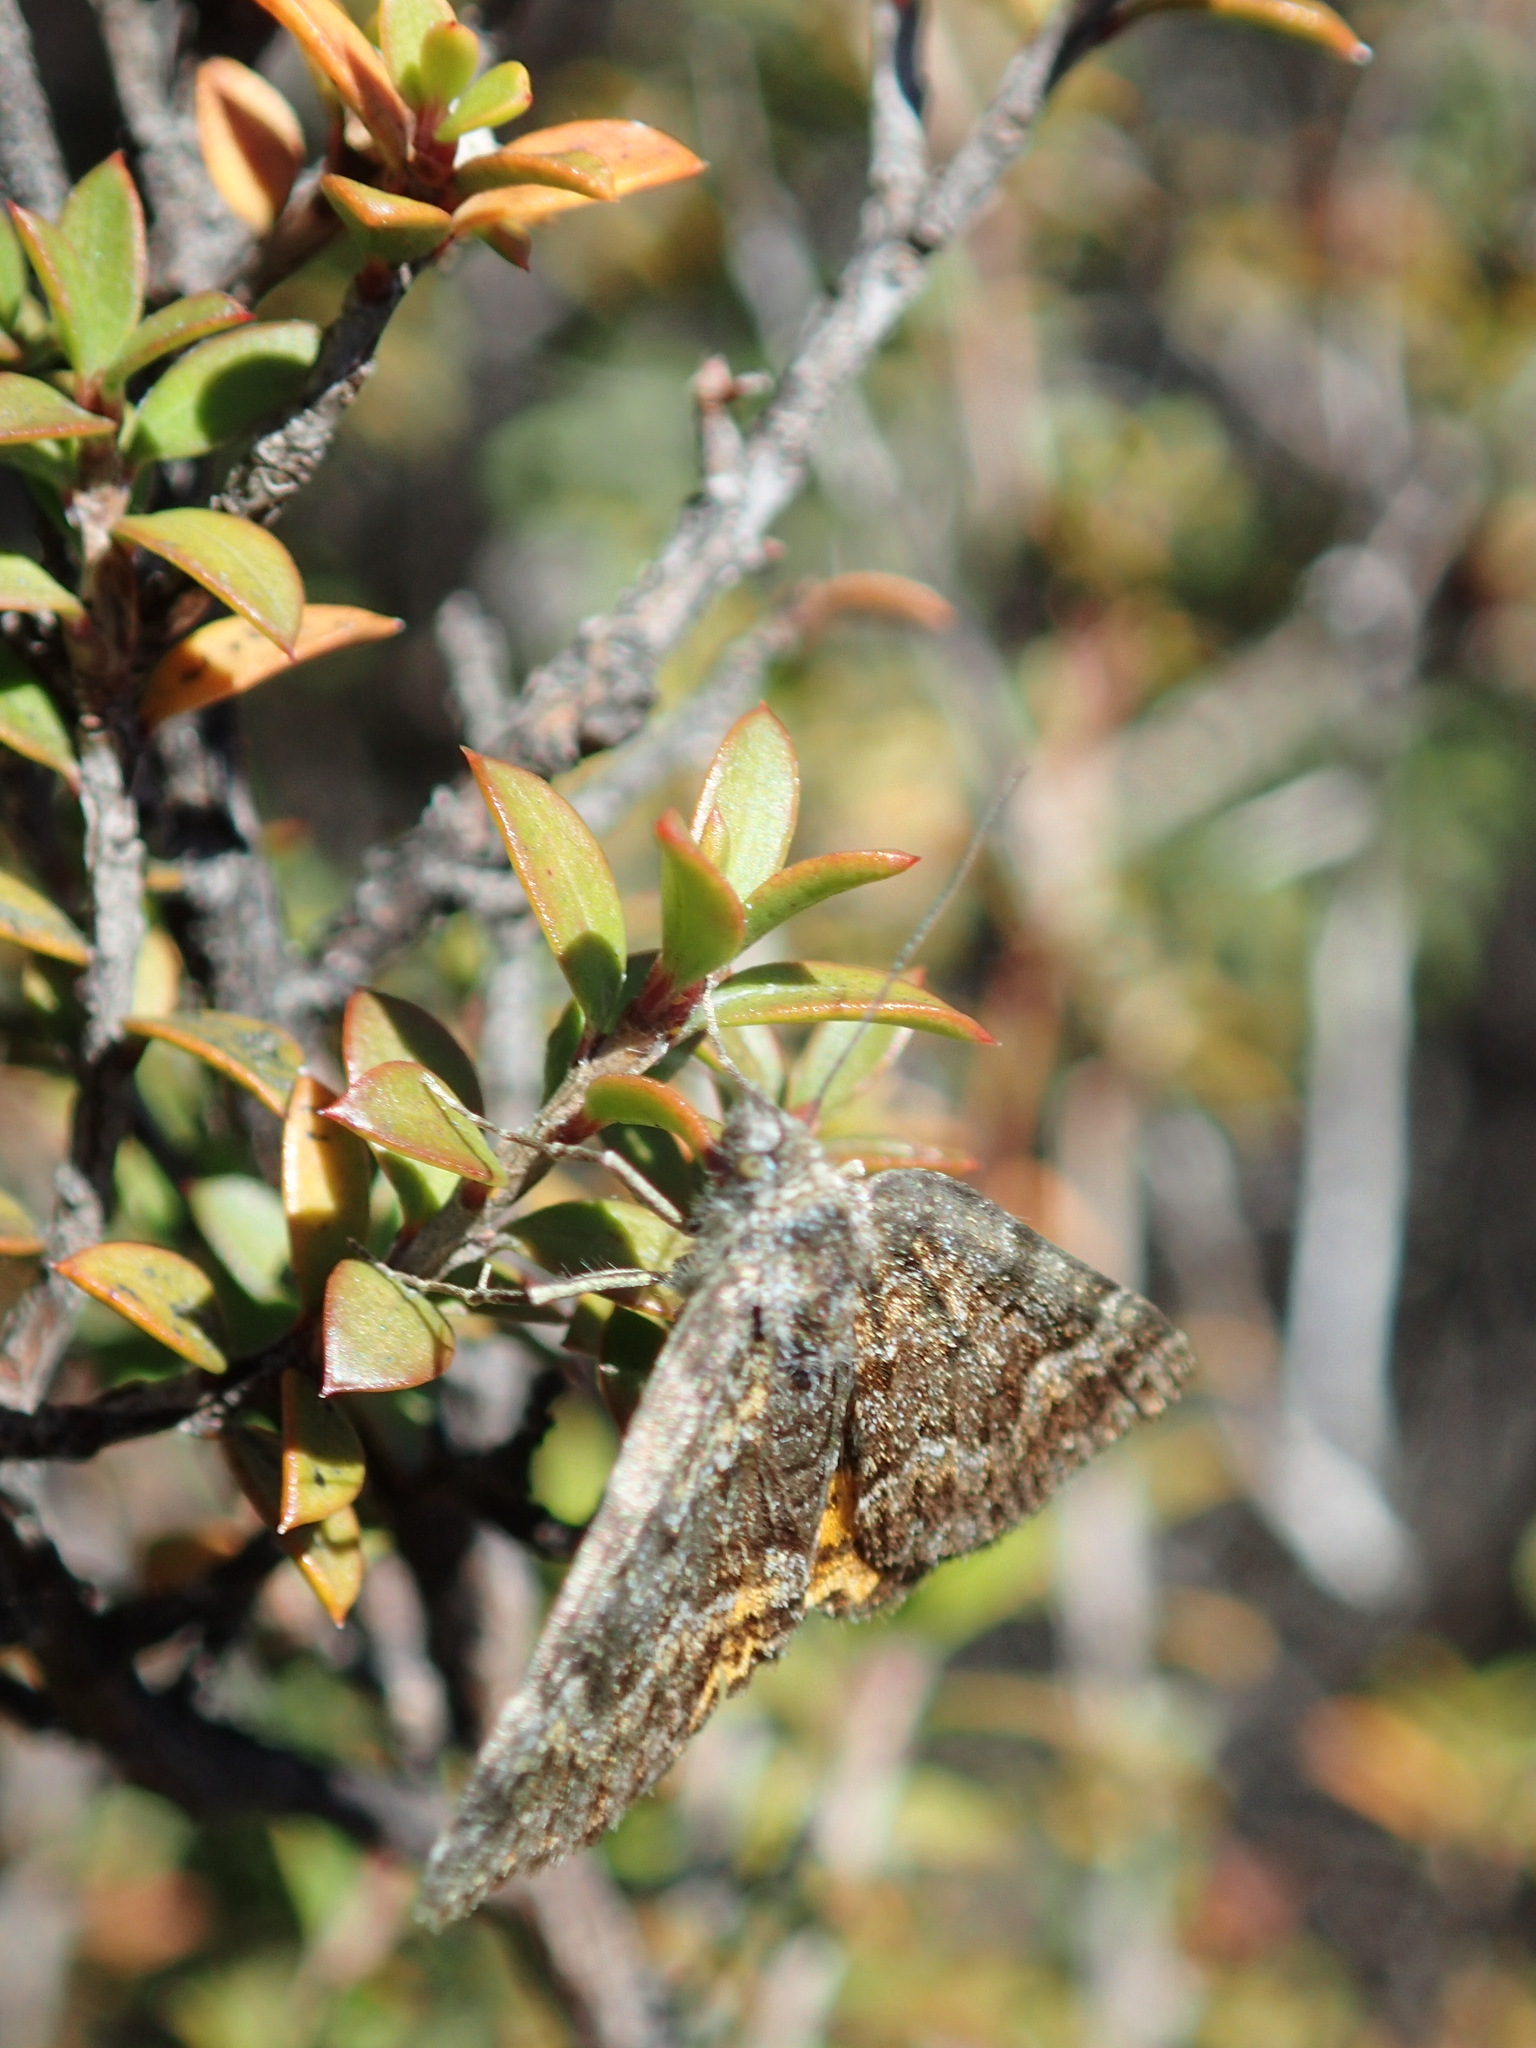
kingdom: Animalia
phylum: Arthropoda
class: Insecta
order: Lepidoptera
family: Geometridae
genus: Paranotoreas
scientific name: Paranotoreas brephosata
